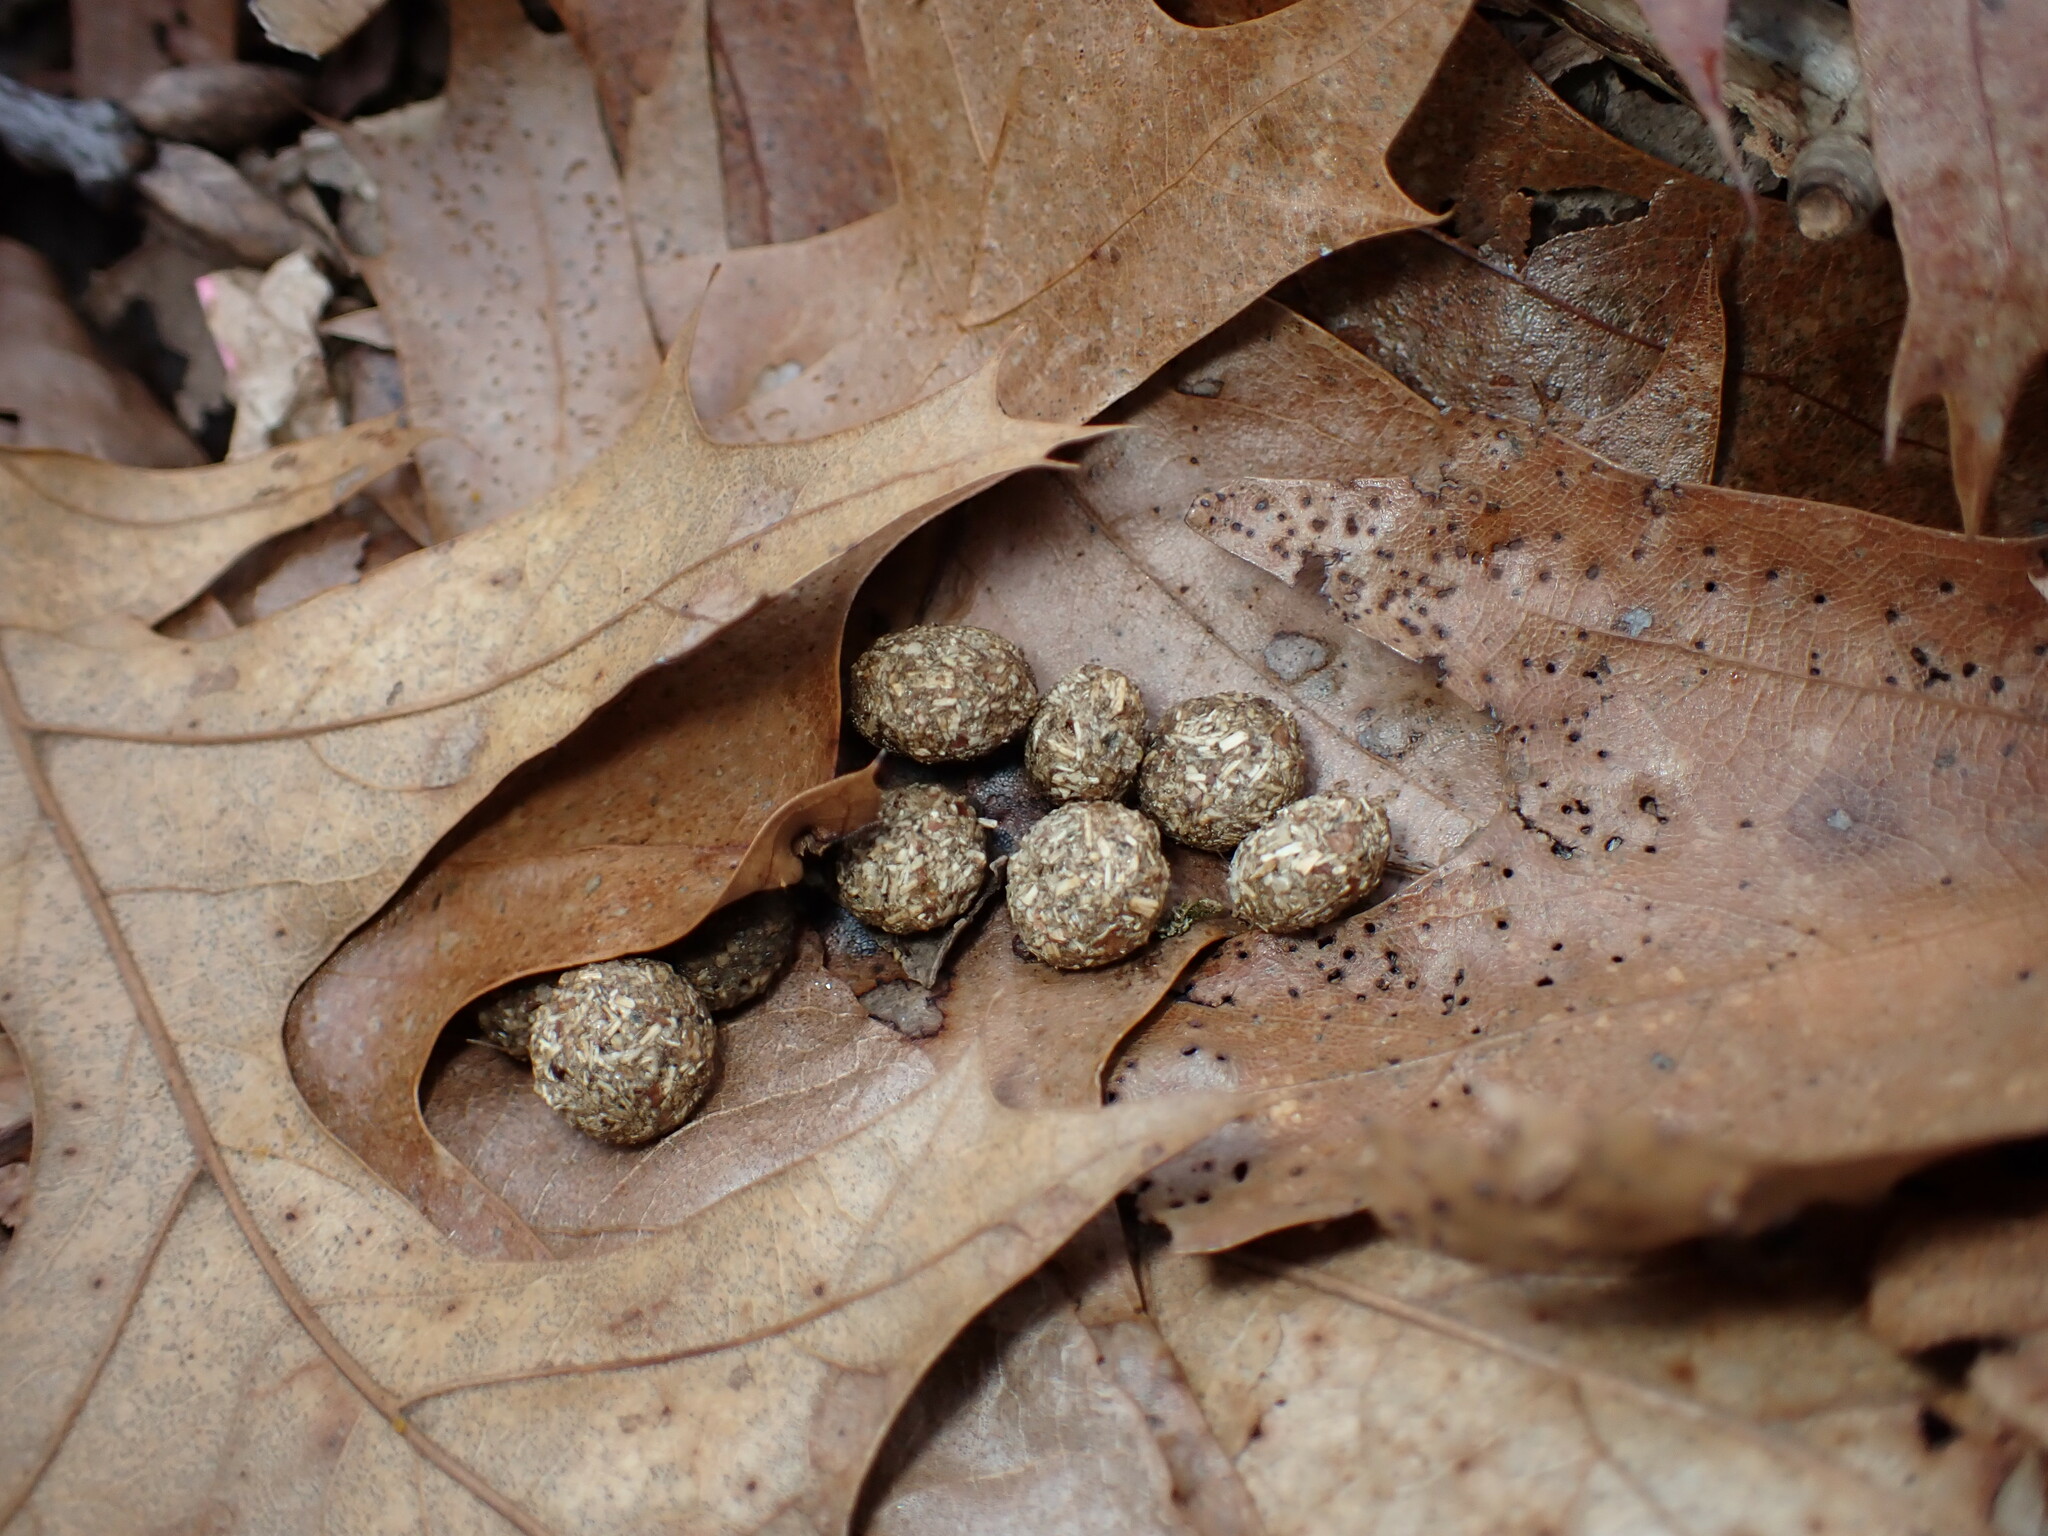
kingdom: Animalia
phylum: Chordata
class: Mammalia
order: Lagomorpha
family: Leporidae
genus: Sylvilagus
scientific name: Sylvilagus floridanus
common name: Eastern cottontail
